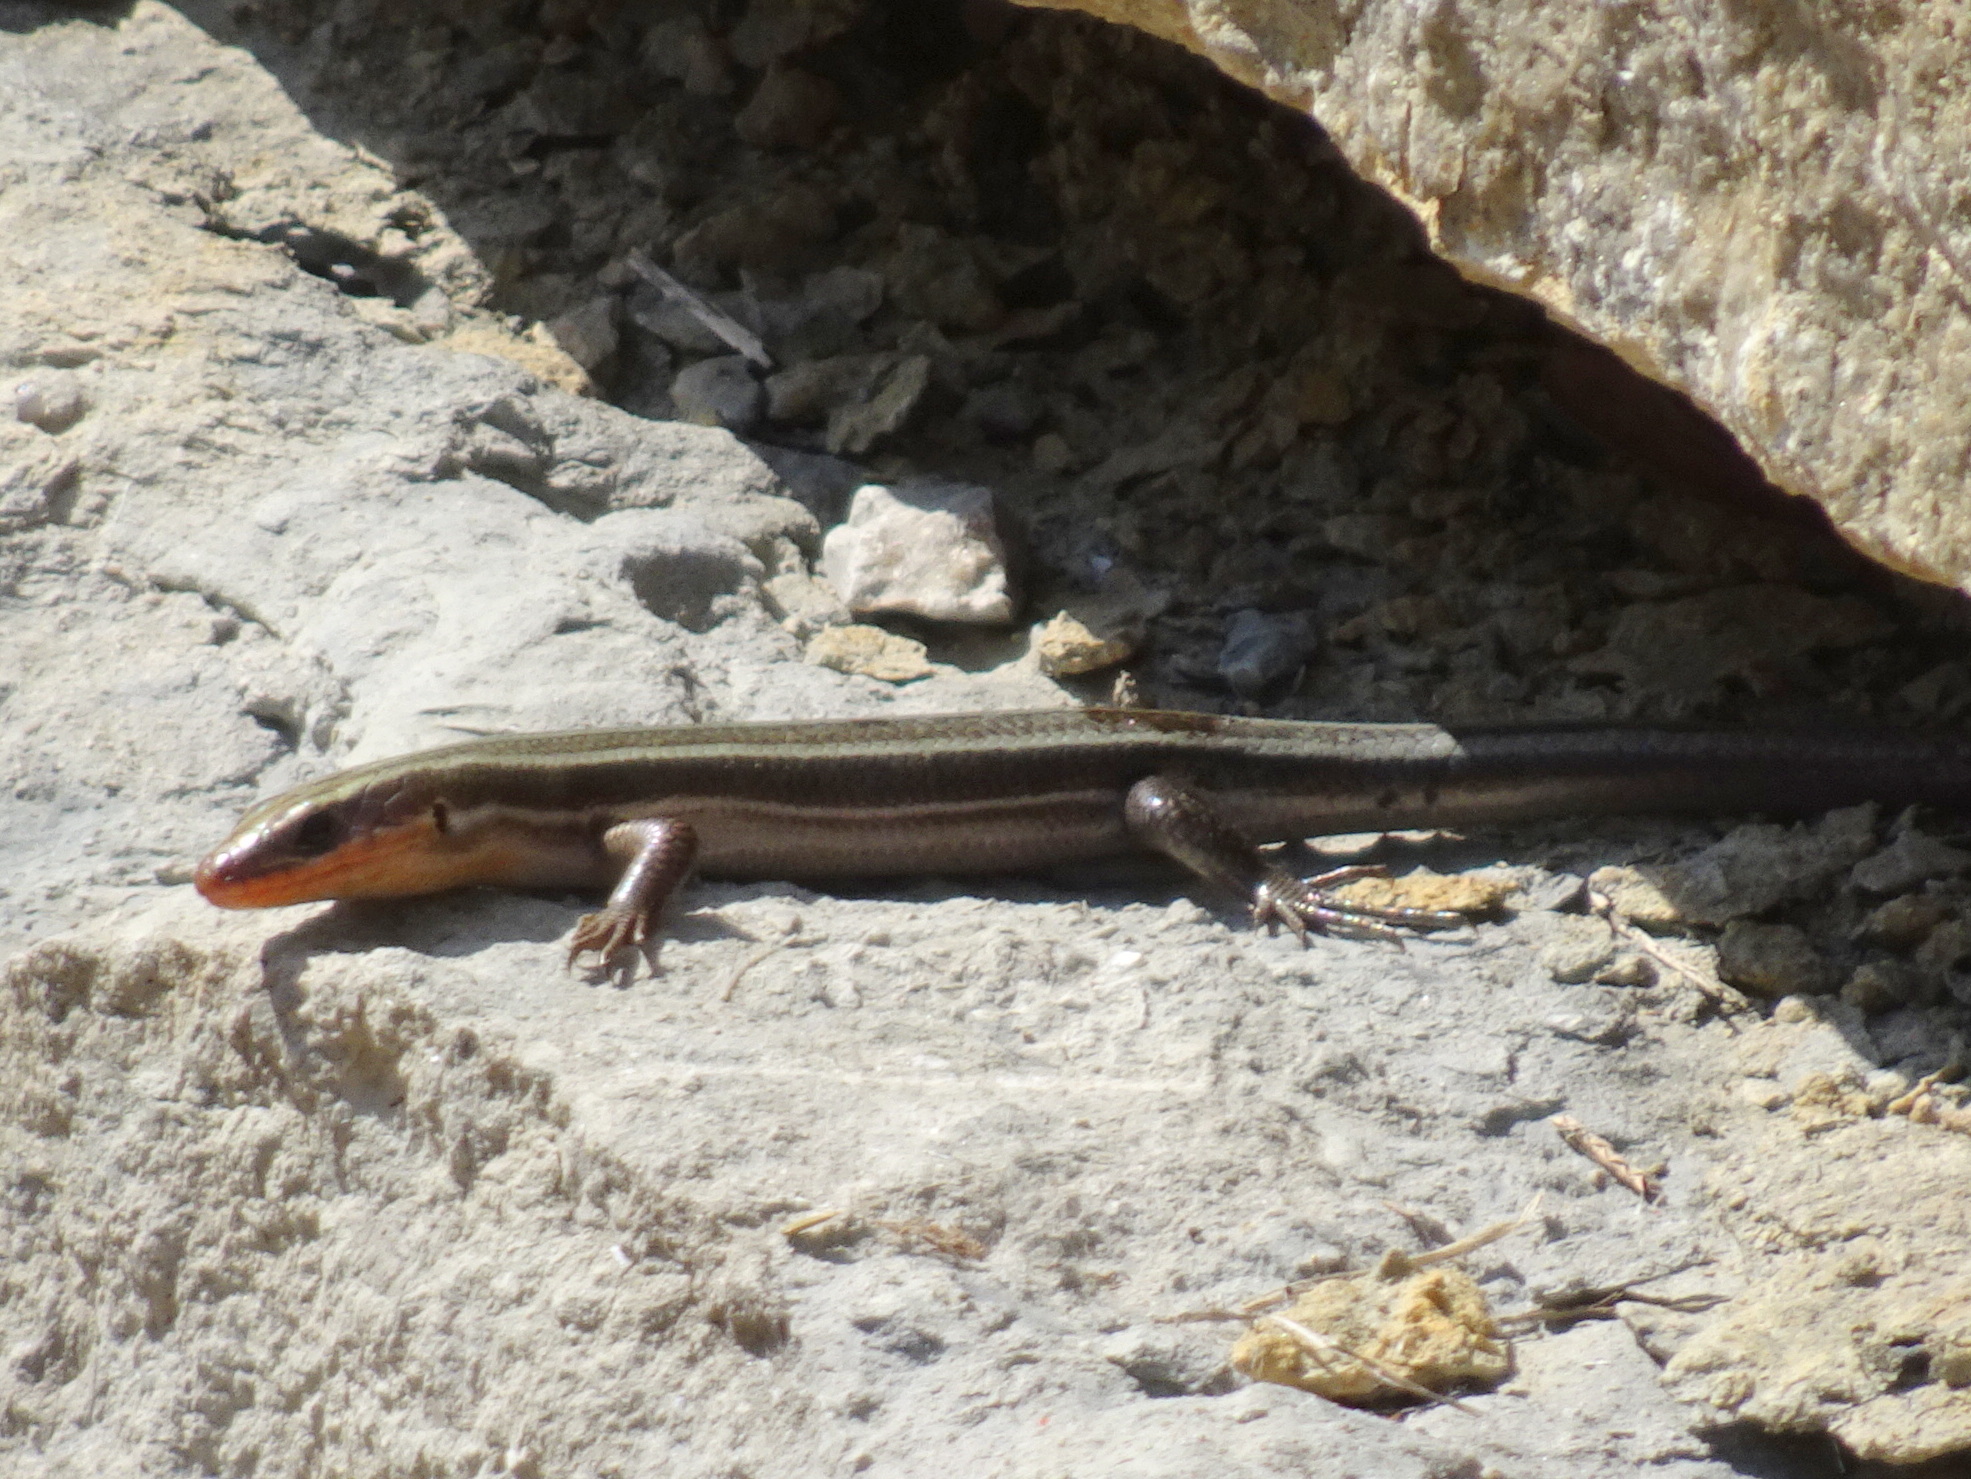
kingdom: Animalia
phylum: Chordata
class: Squamata
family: Scincidae
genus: Plestiodon
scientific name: Plestiodon fasciatus
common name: Five-lined skink
